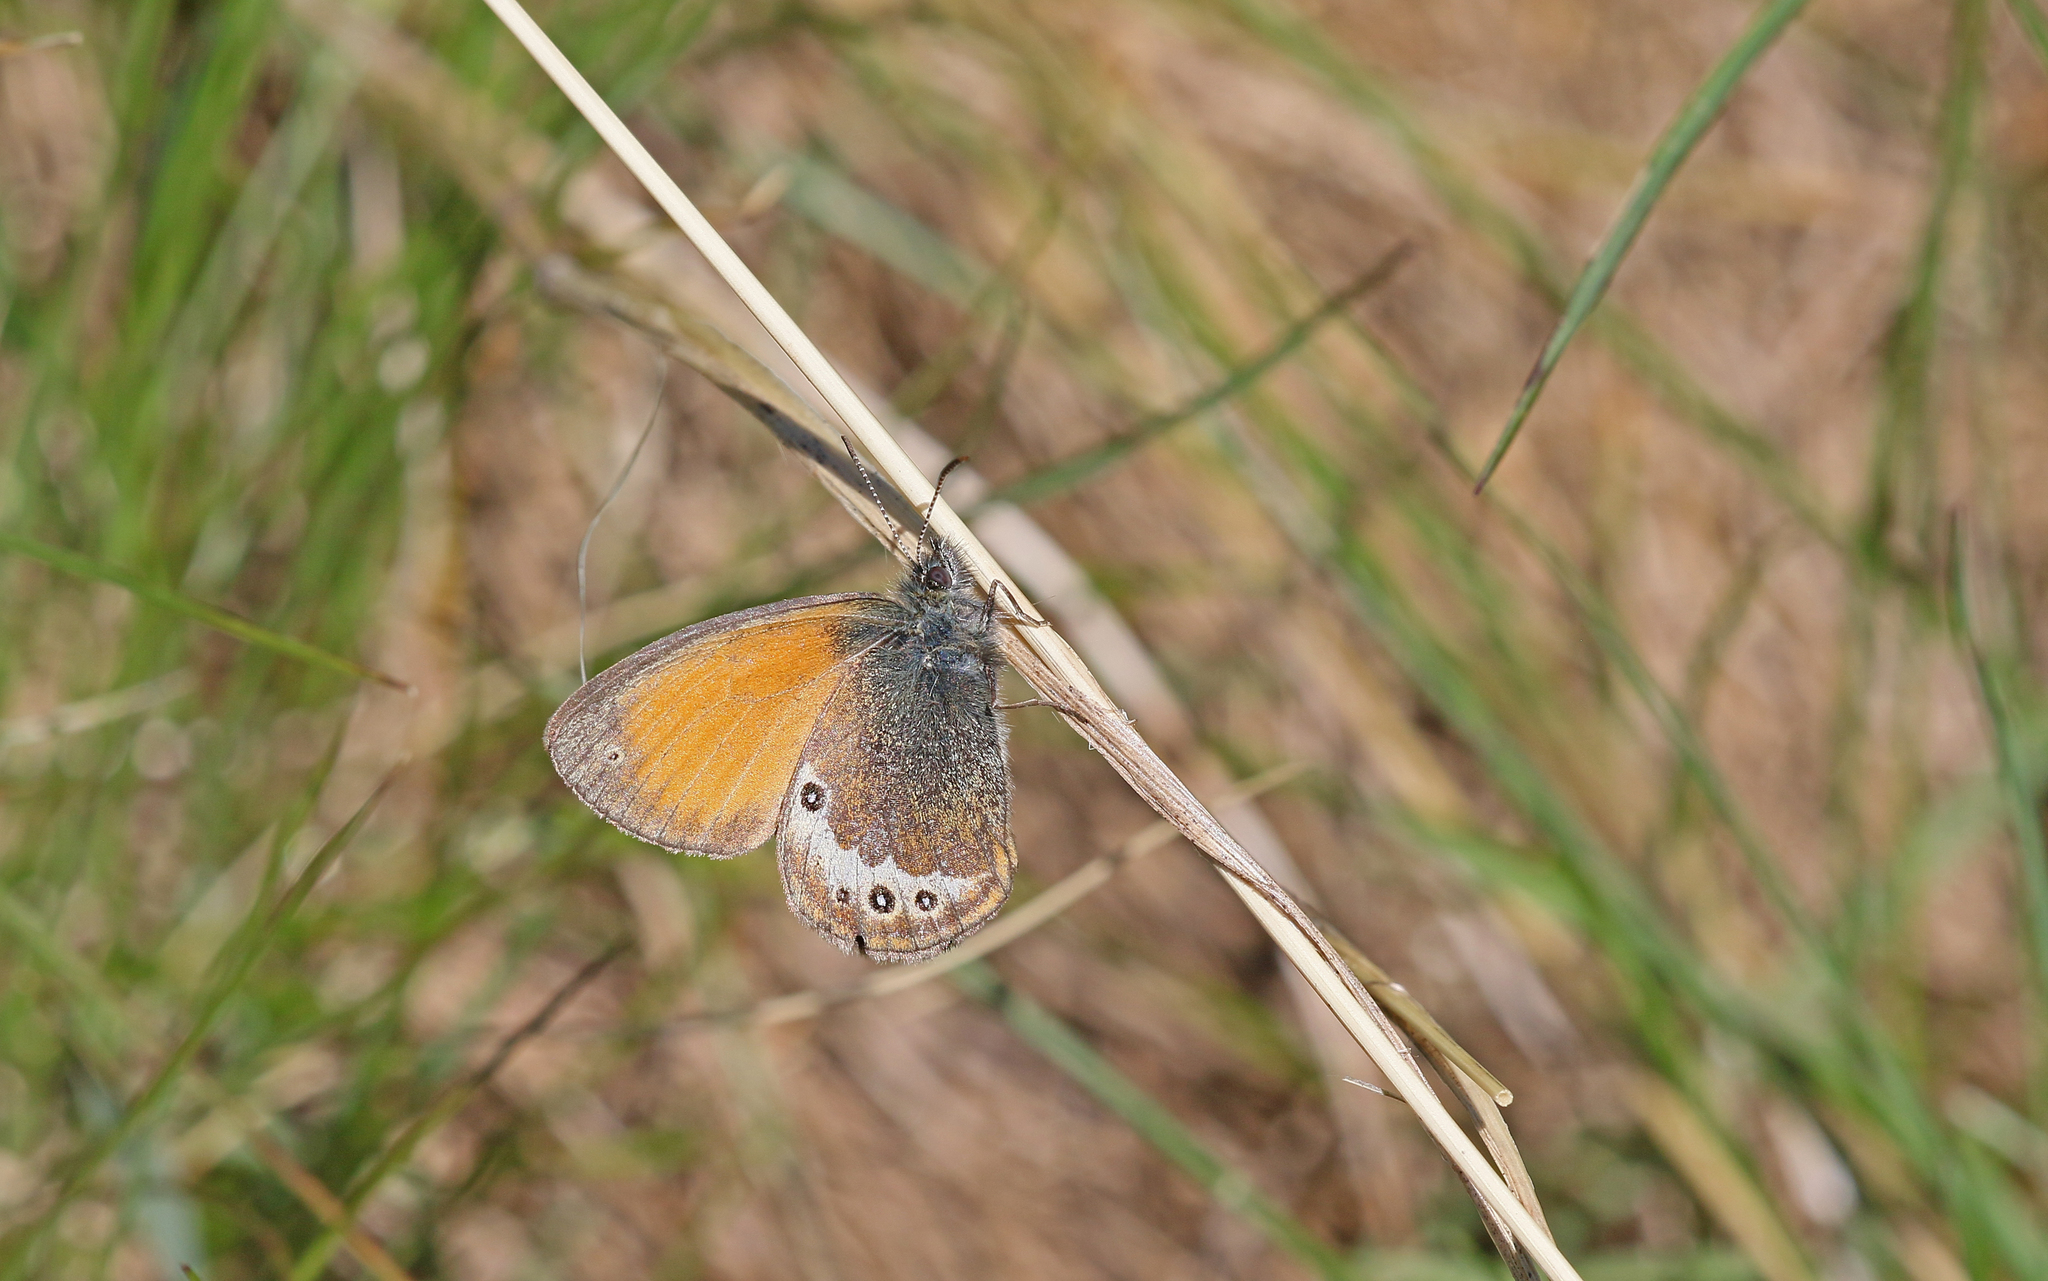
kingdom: Animalia
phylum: Arthropoda
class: Insecta
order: Lepidoptera
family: Nymphalidae
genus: Coenonympha
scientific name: Coenonympha arcania
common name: Pearly heath
